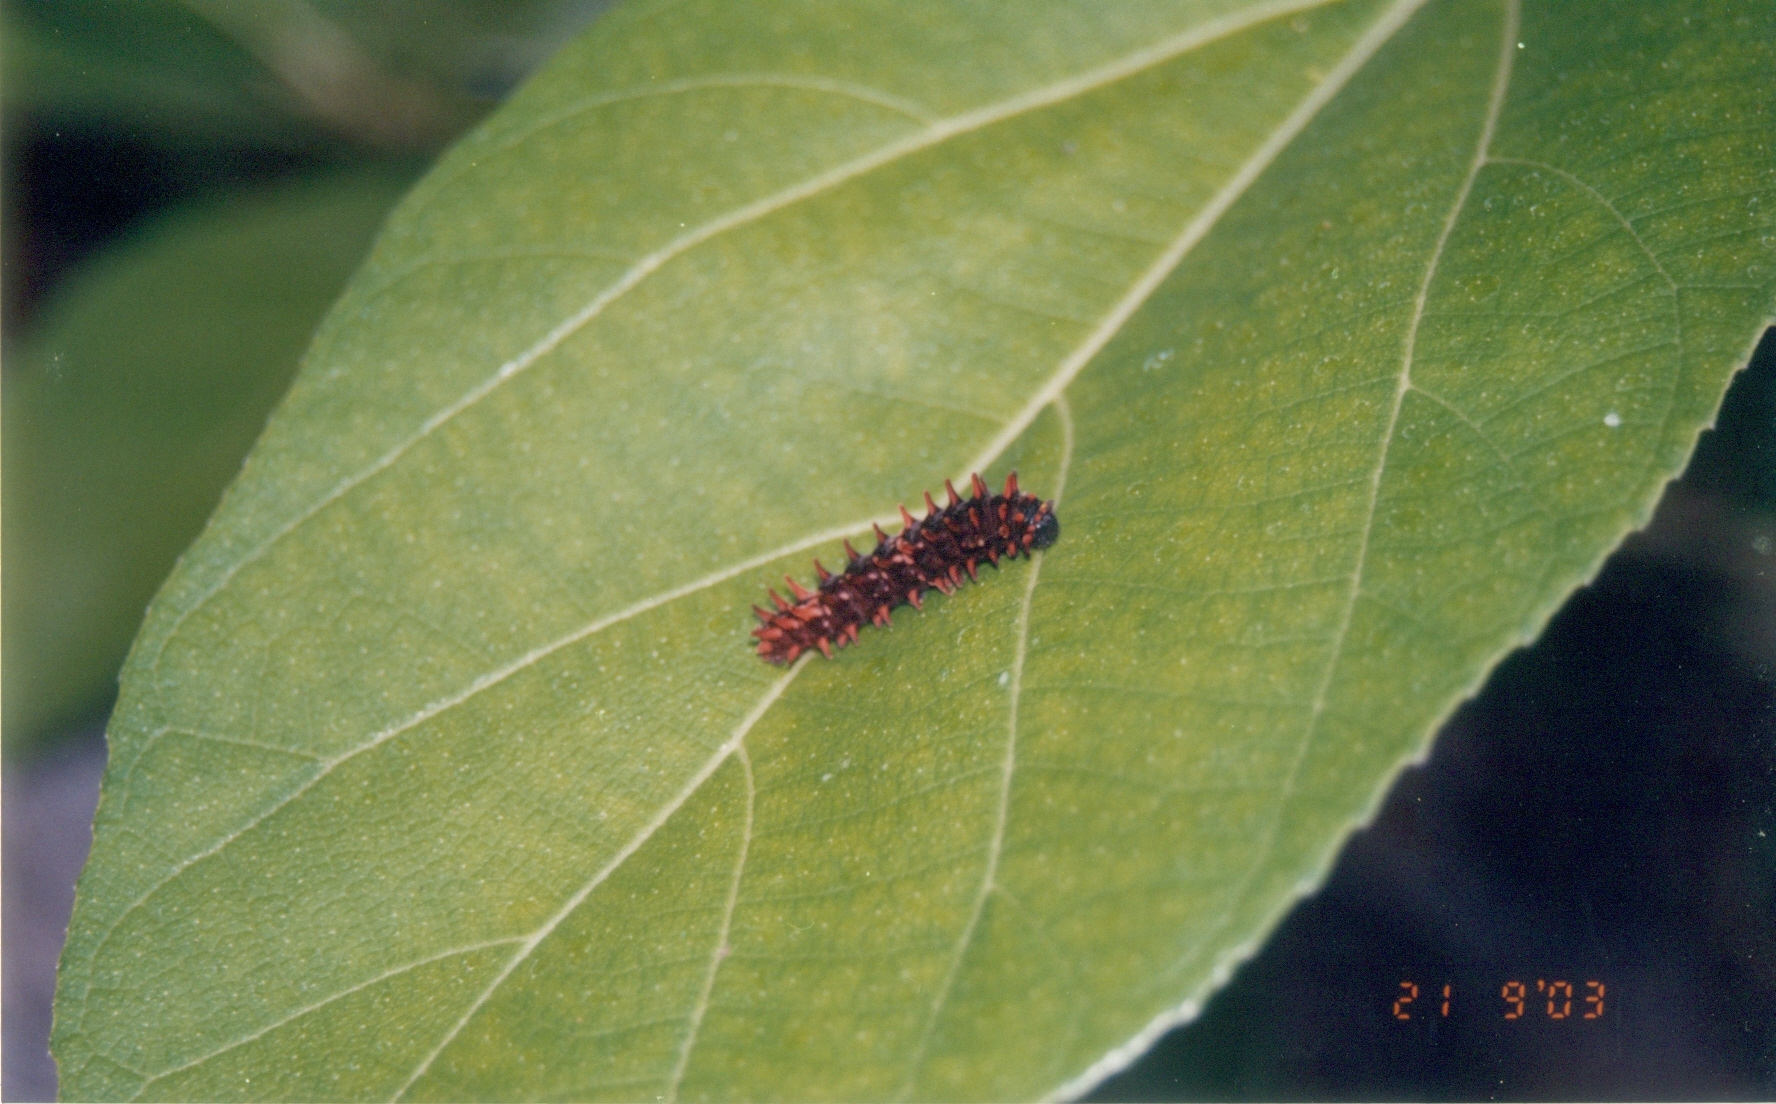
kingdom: Animalia
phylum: Arthropoda
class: Insecta
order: Lepidoptera
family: Papilionidae
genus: Pachliopta
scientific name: Pachliopta hector
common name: Crimson rose
